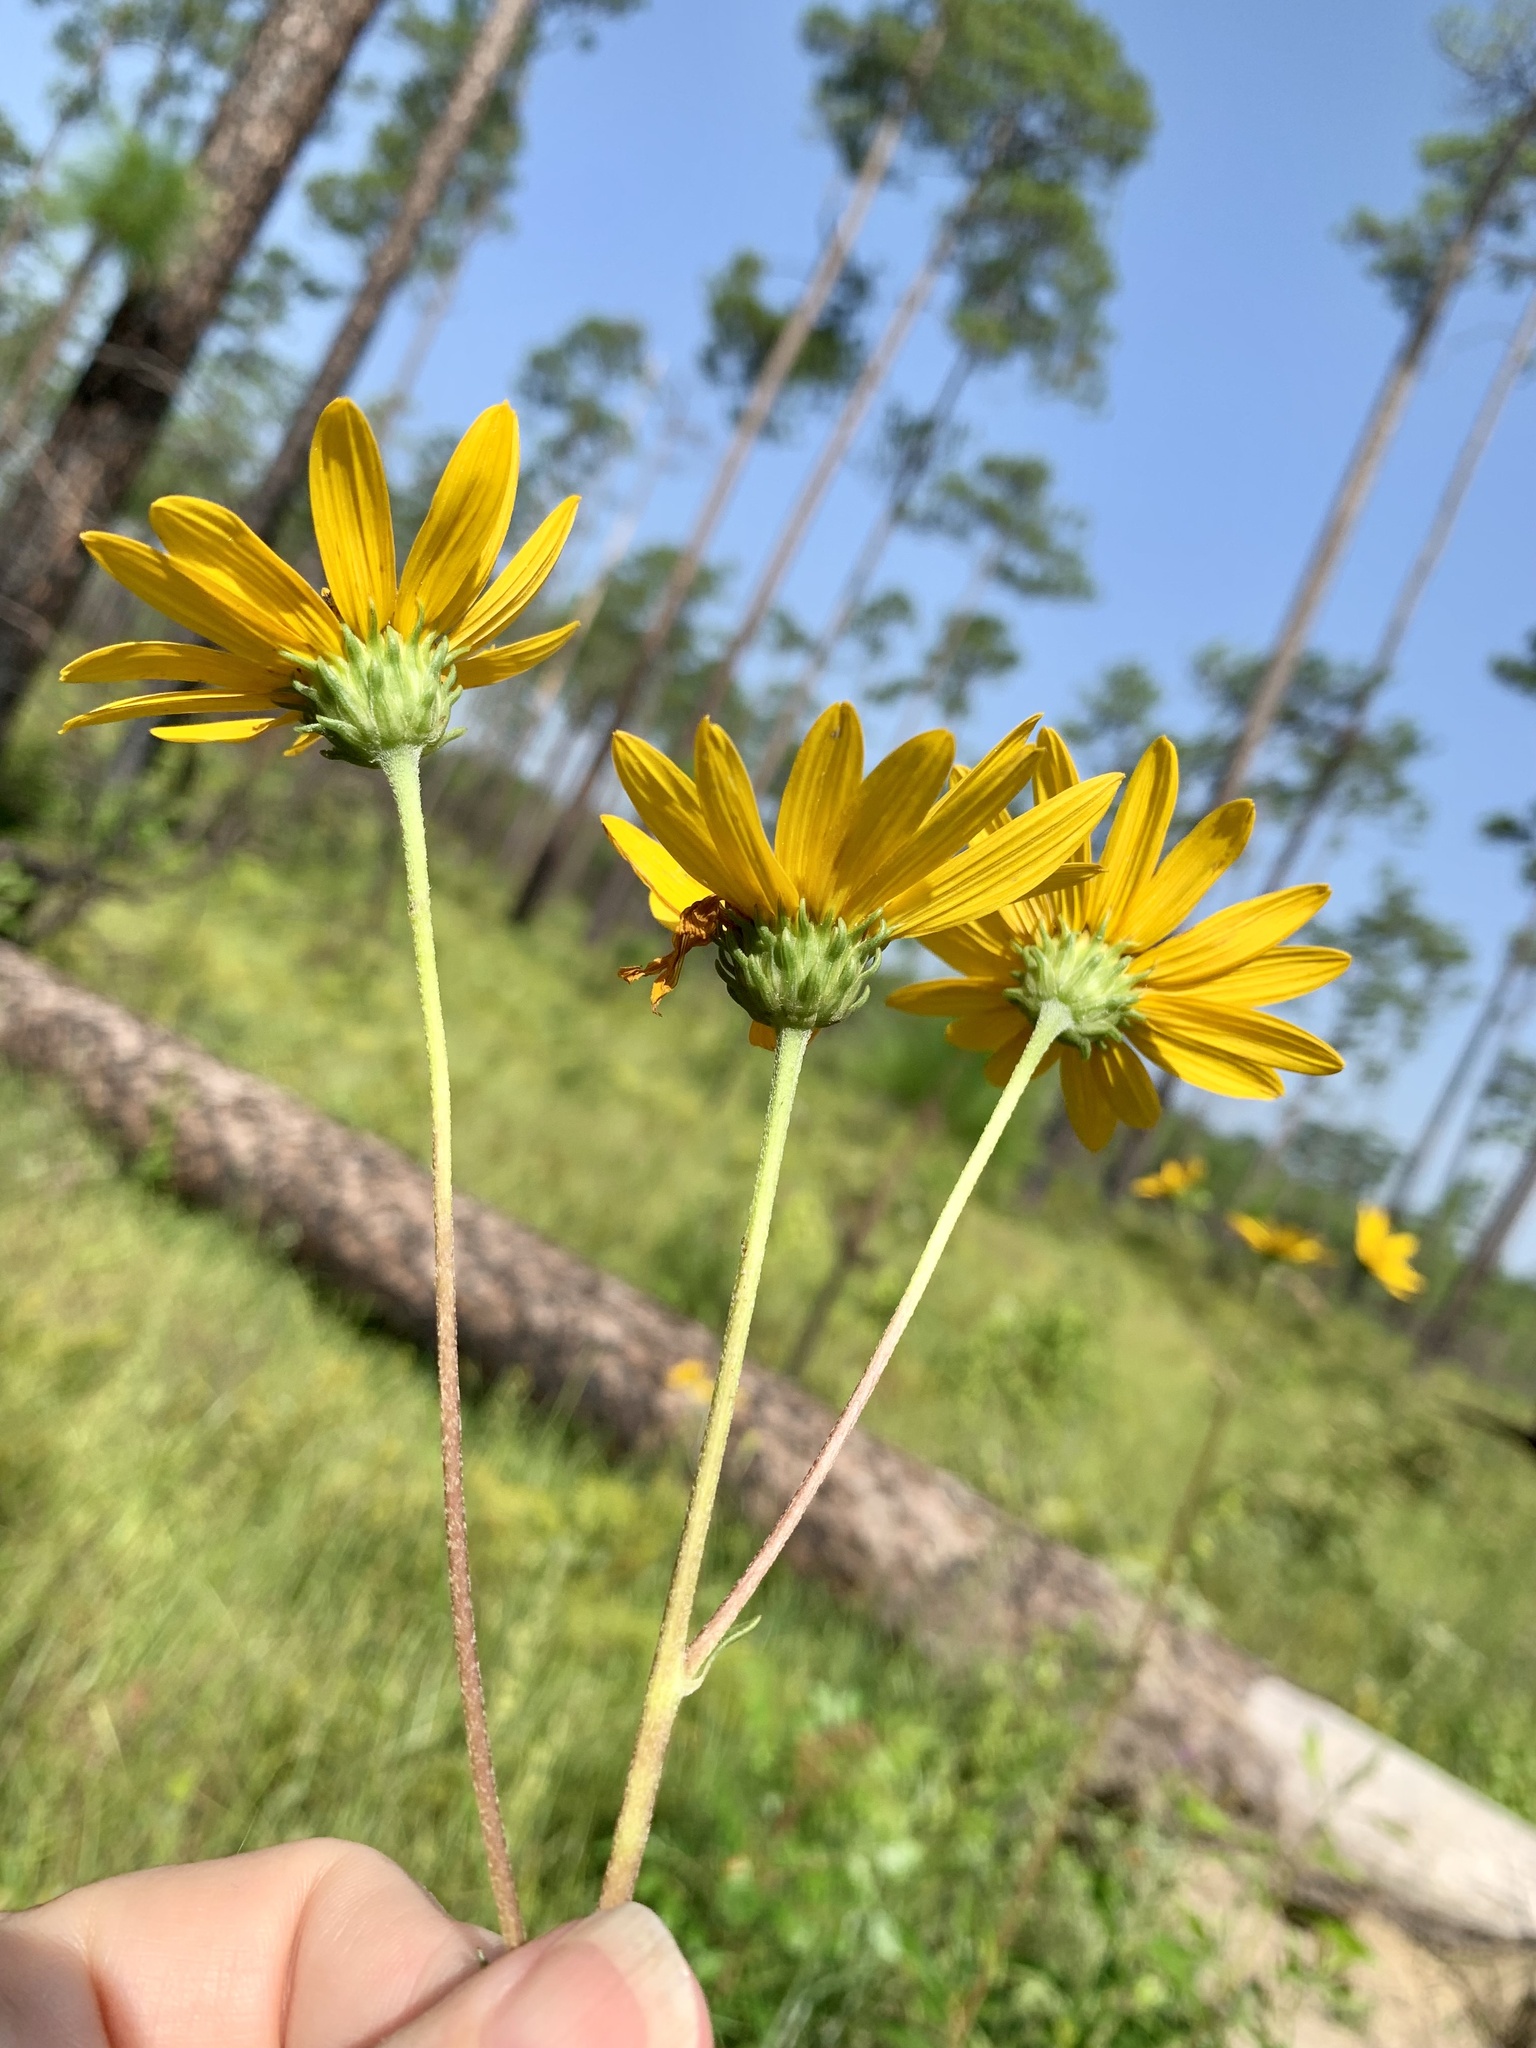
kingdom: Plantae
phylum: Tracheophyta
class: Magnoliopsida
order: Asterales
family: Asteraceae
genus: Helianthus
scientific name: Helianthus occidentalis
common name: Western sunflower
